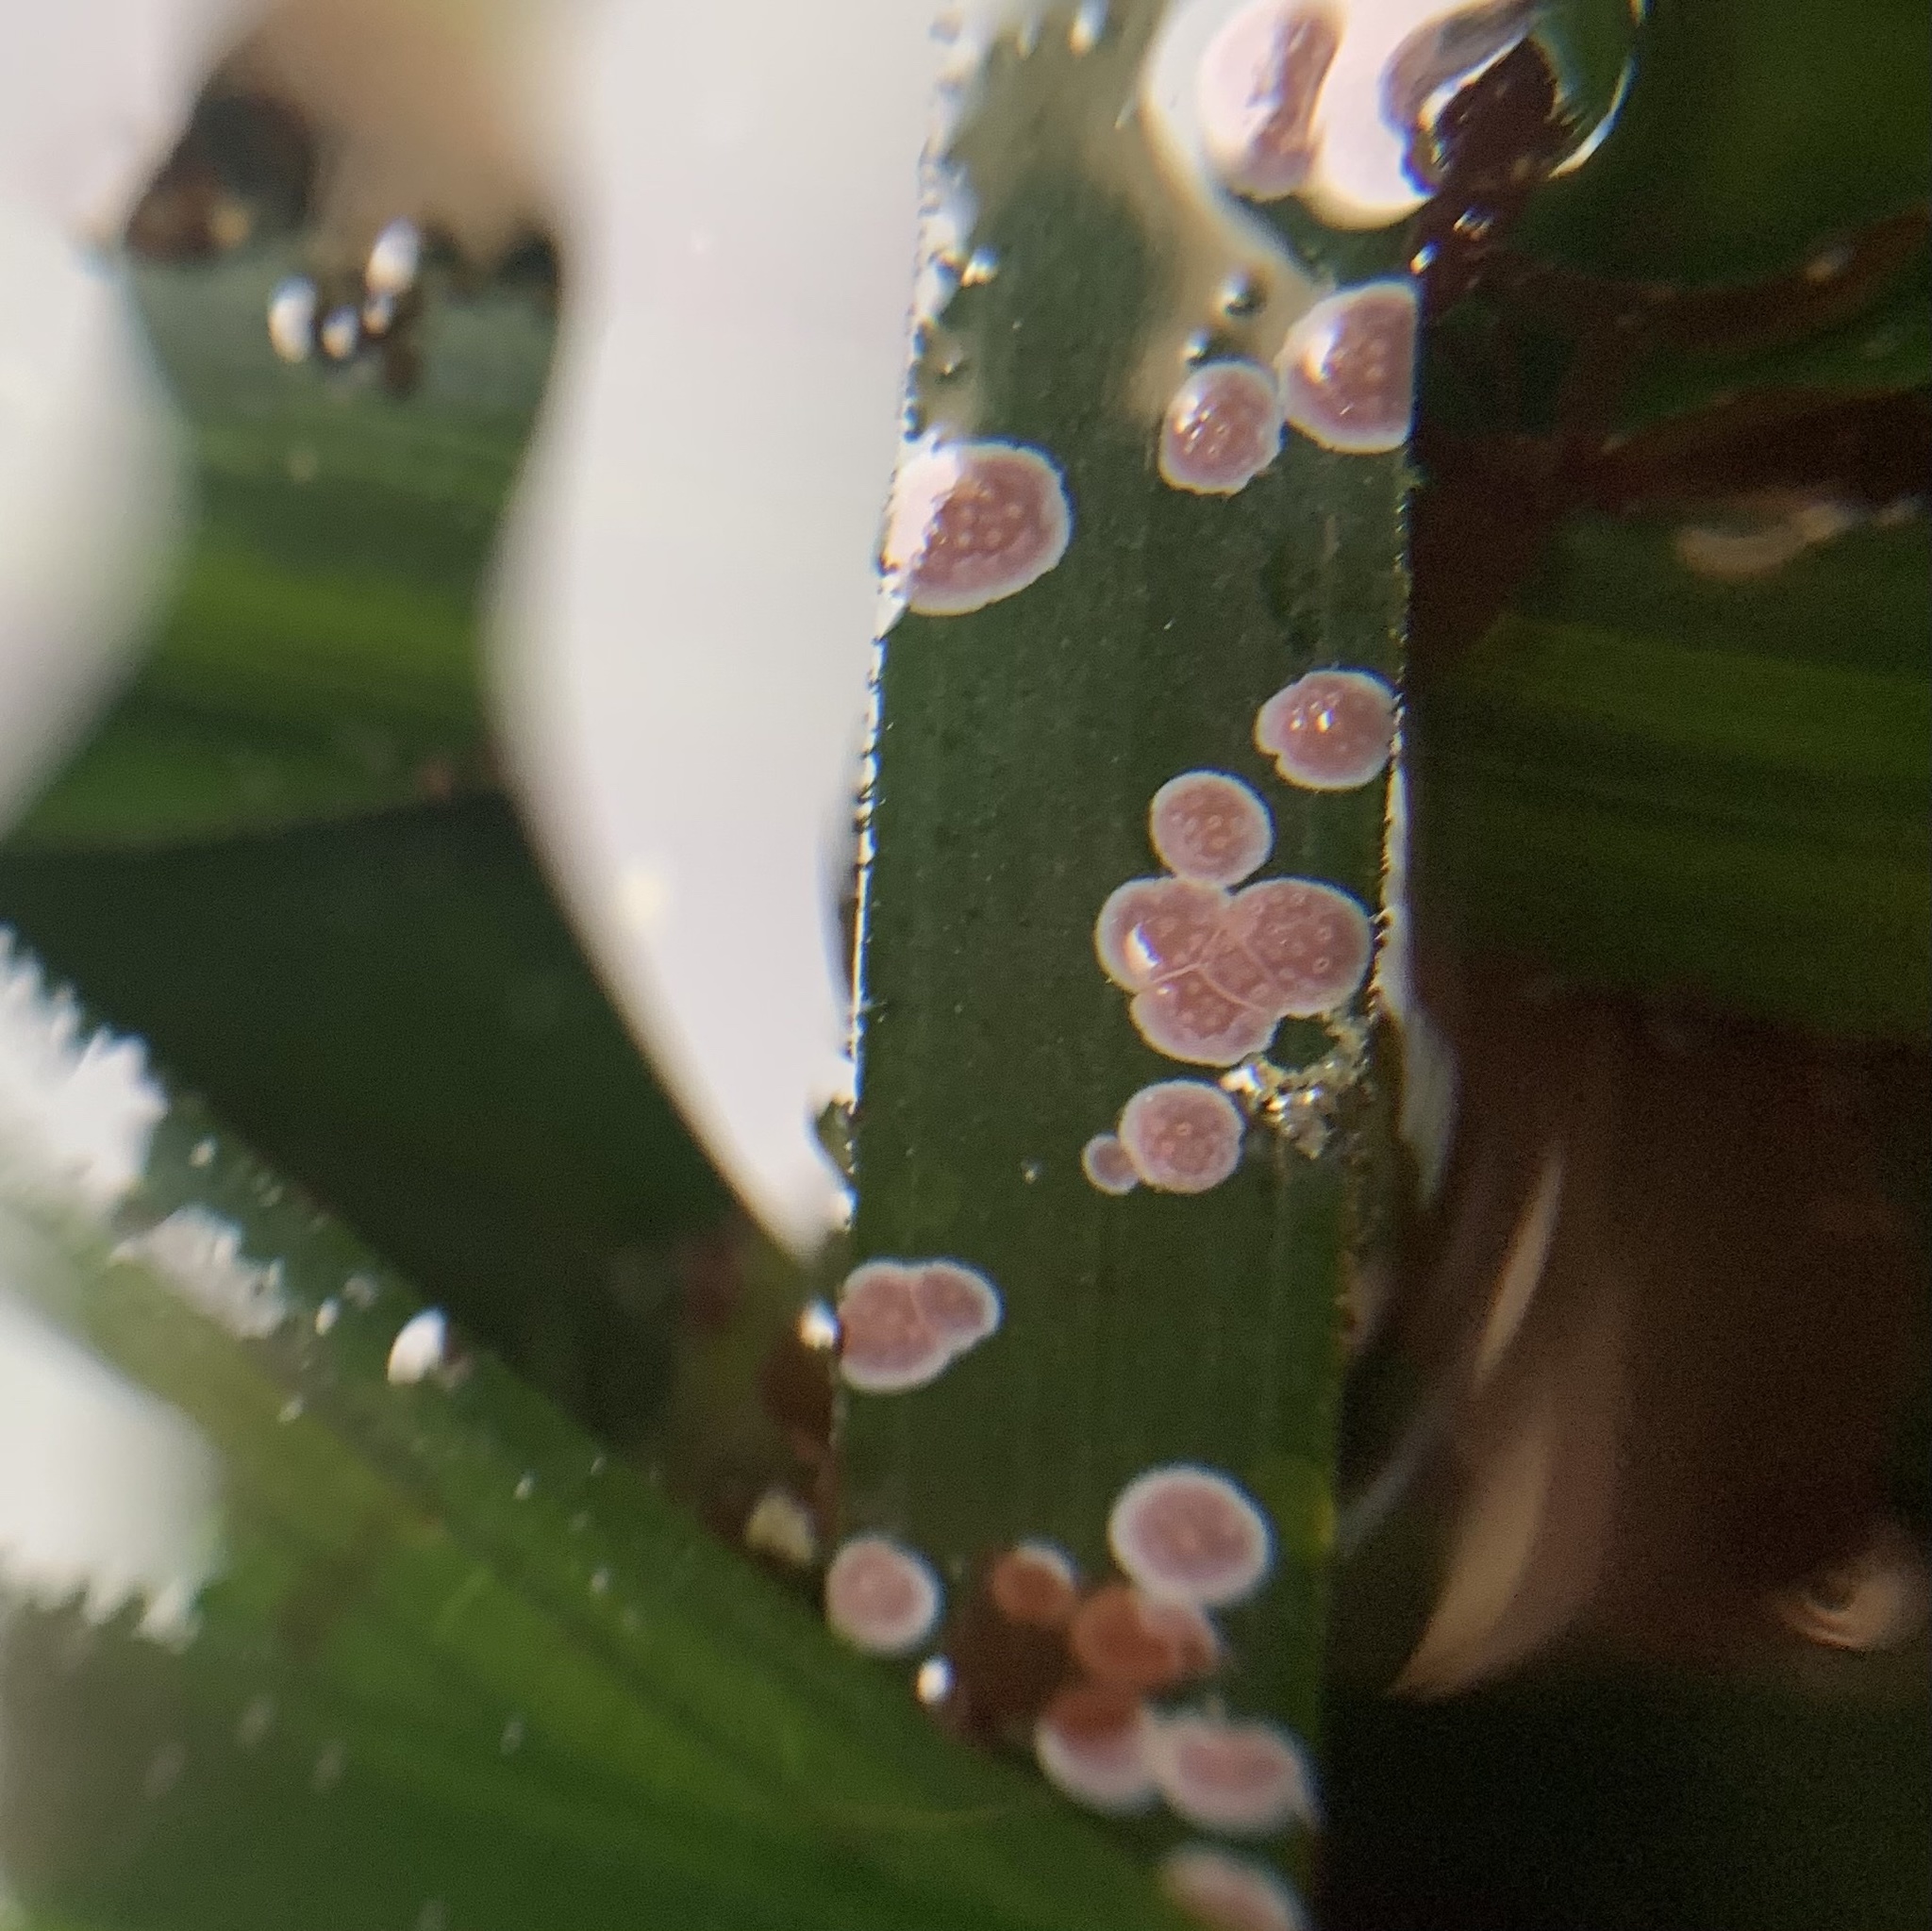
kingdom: Plantae
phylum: Rhodophyta
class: Florideophyceae
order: Corallinales
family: Hapalidiaceae
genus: Melobesia
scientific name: Melobesia mediocris
